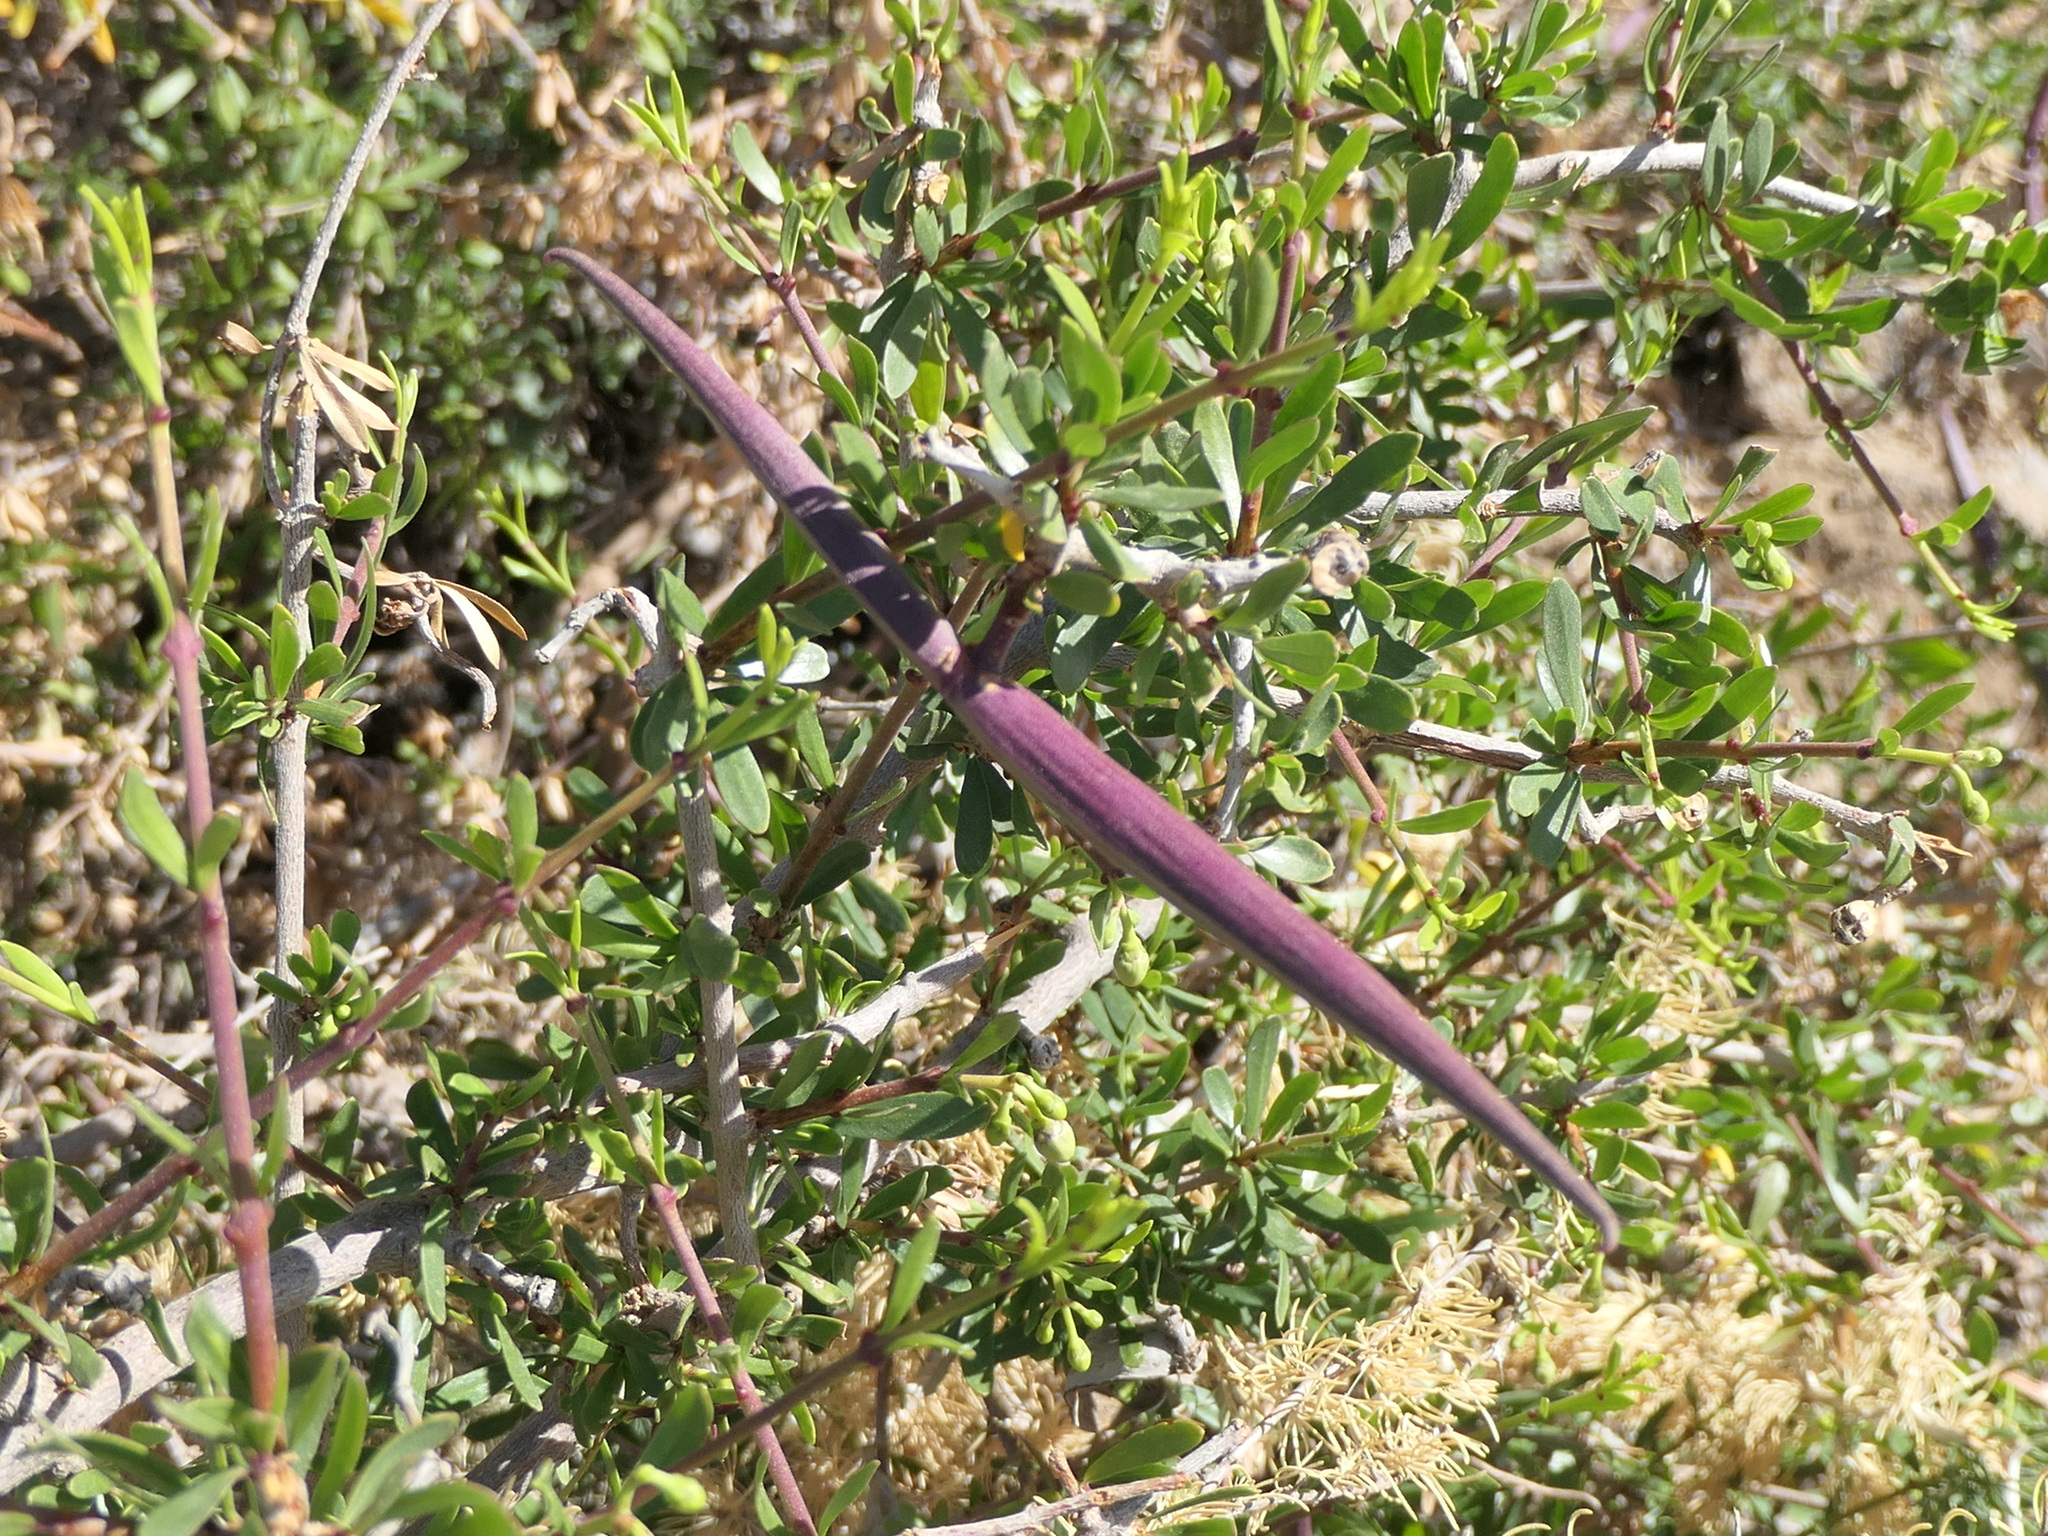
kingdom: Plantae
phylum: Tracheophyta
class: Magnoliopsida
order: Gentianales
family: Apocynaceae
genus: Periploca
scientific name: Periploca laevigata
